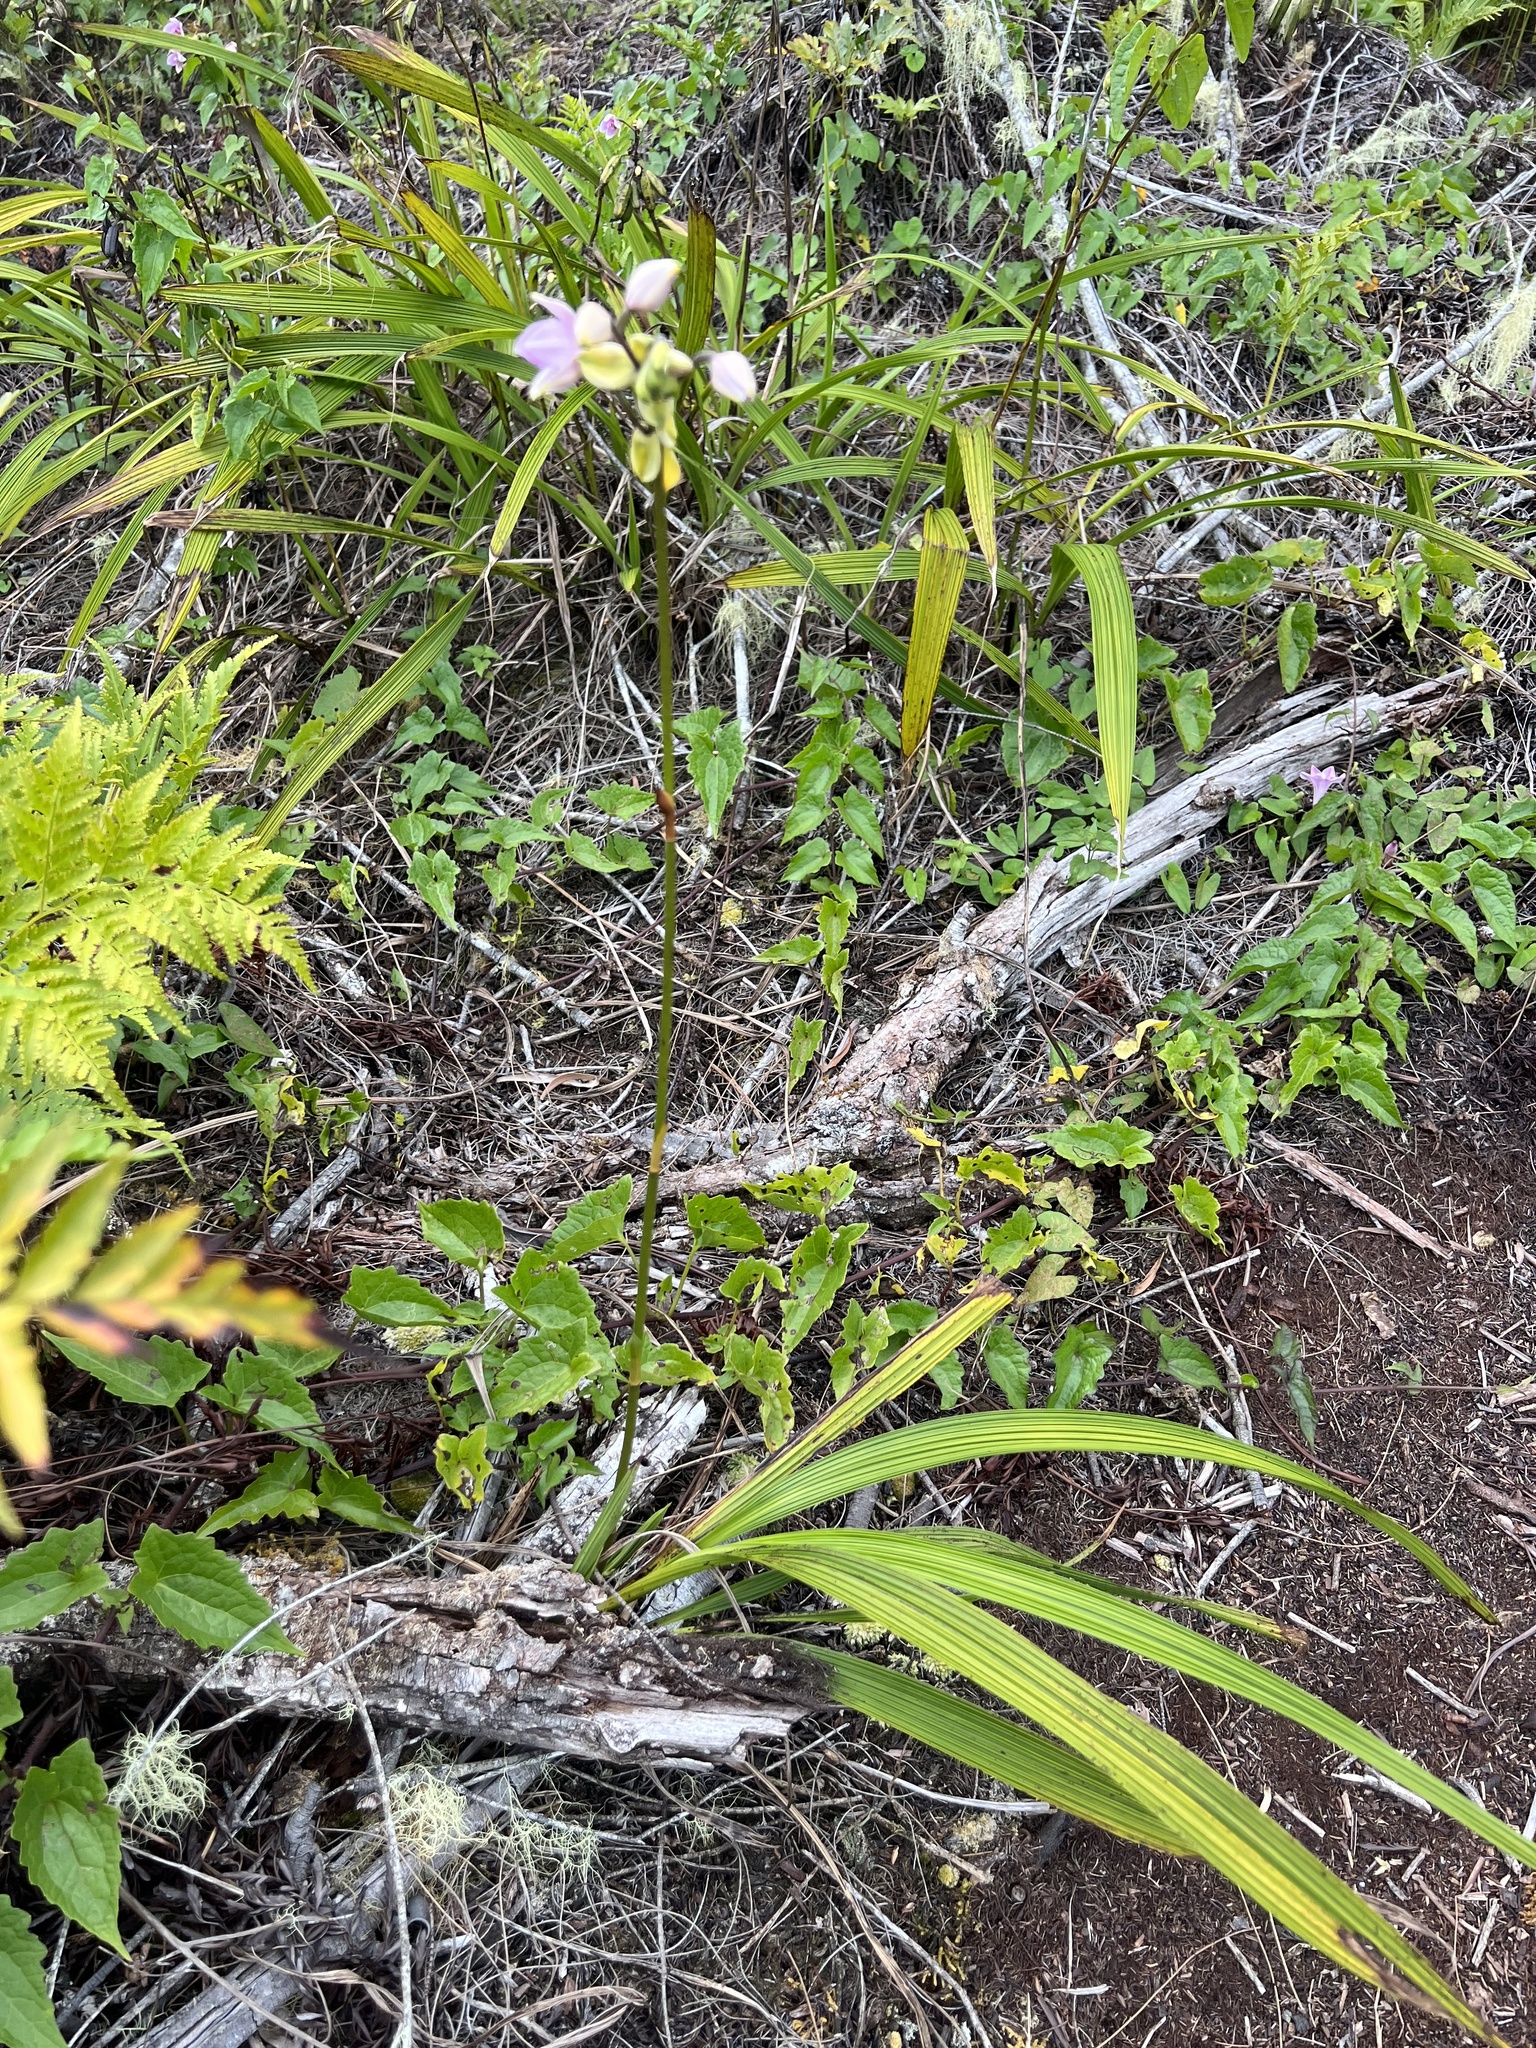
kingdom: Plantae
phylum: Tracheophyta
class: Liliopsida
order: Asparagales
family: Orchidaceae
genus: Spathoglottis
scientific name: Spathoglottis plicata
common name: Philippine ground orchid
